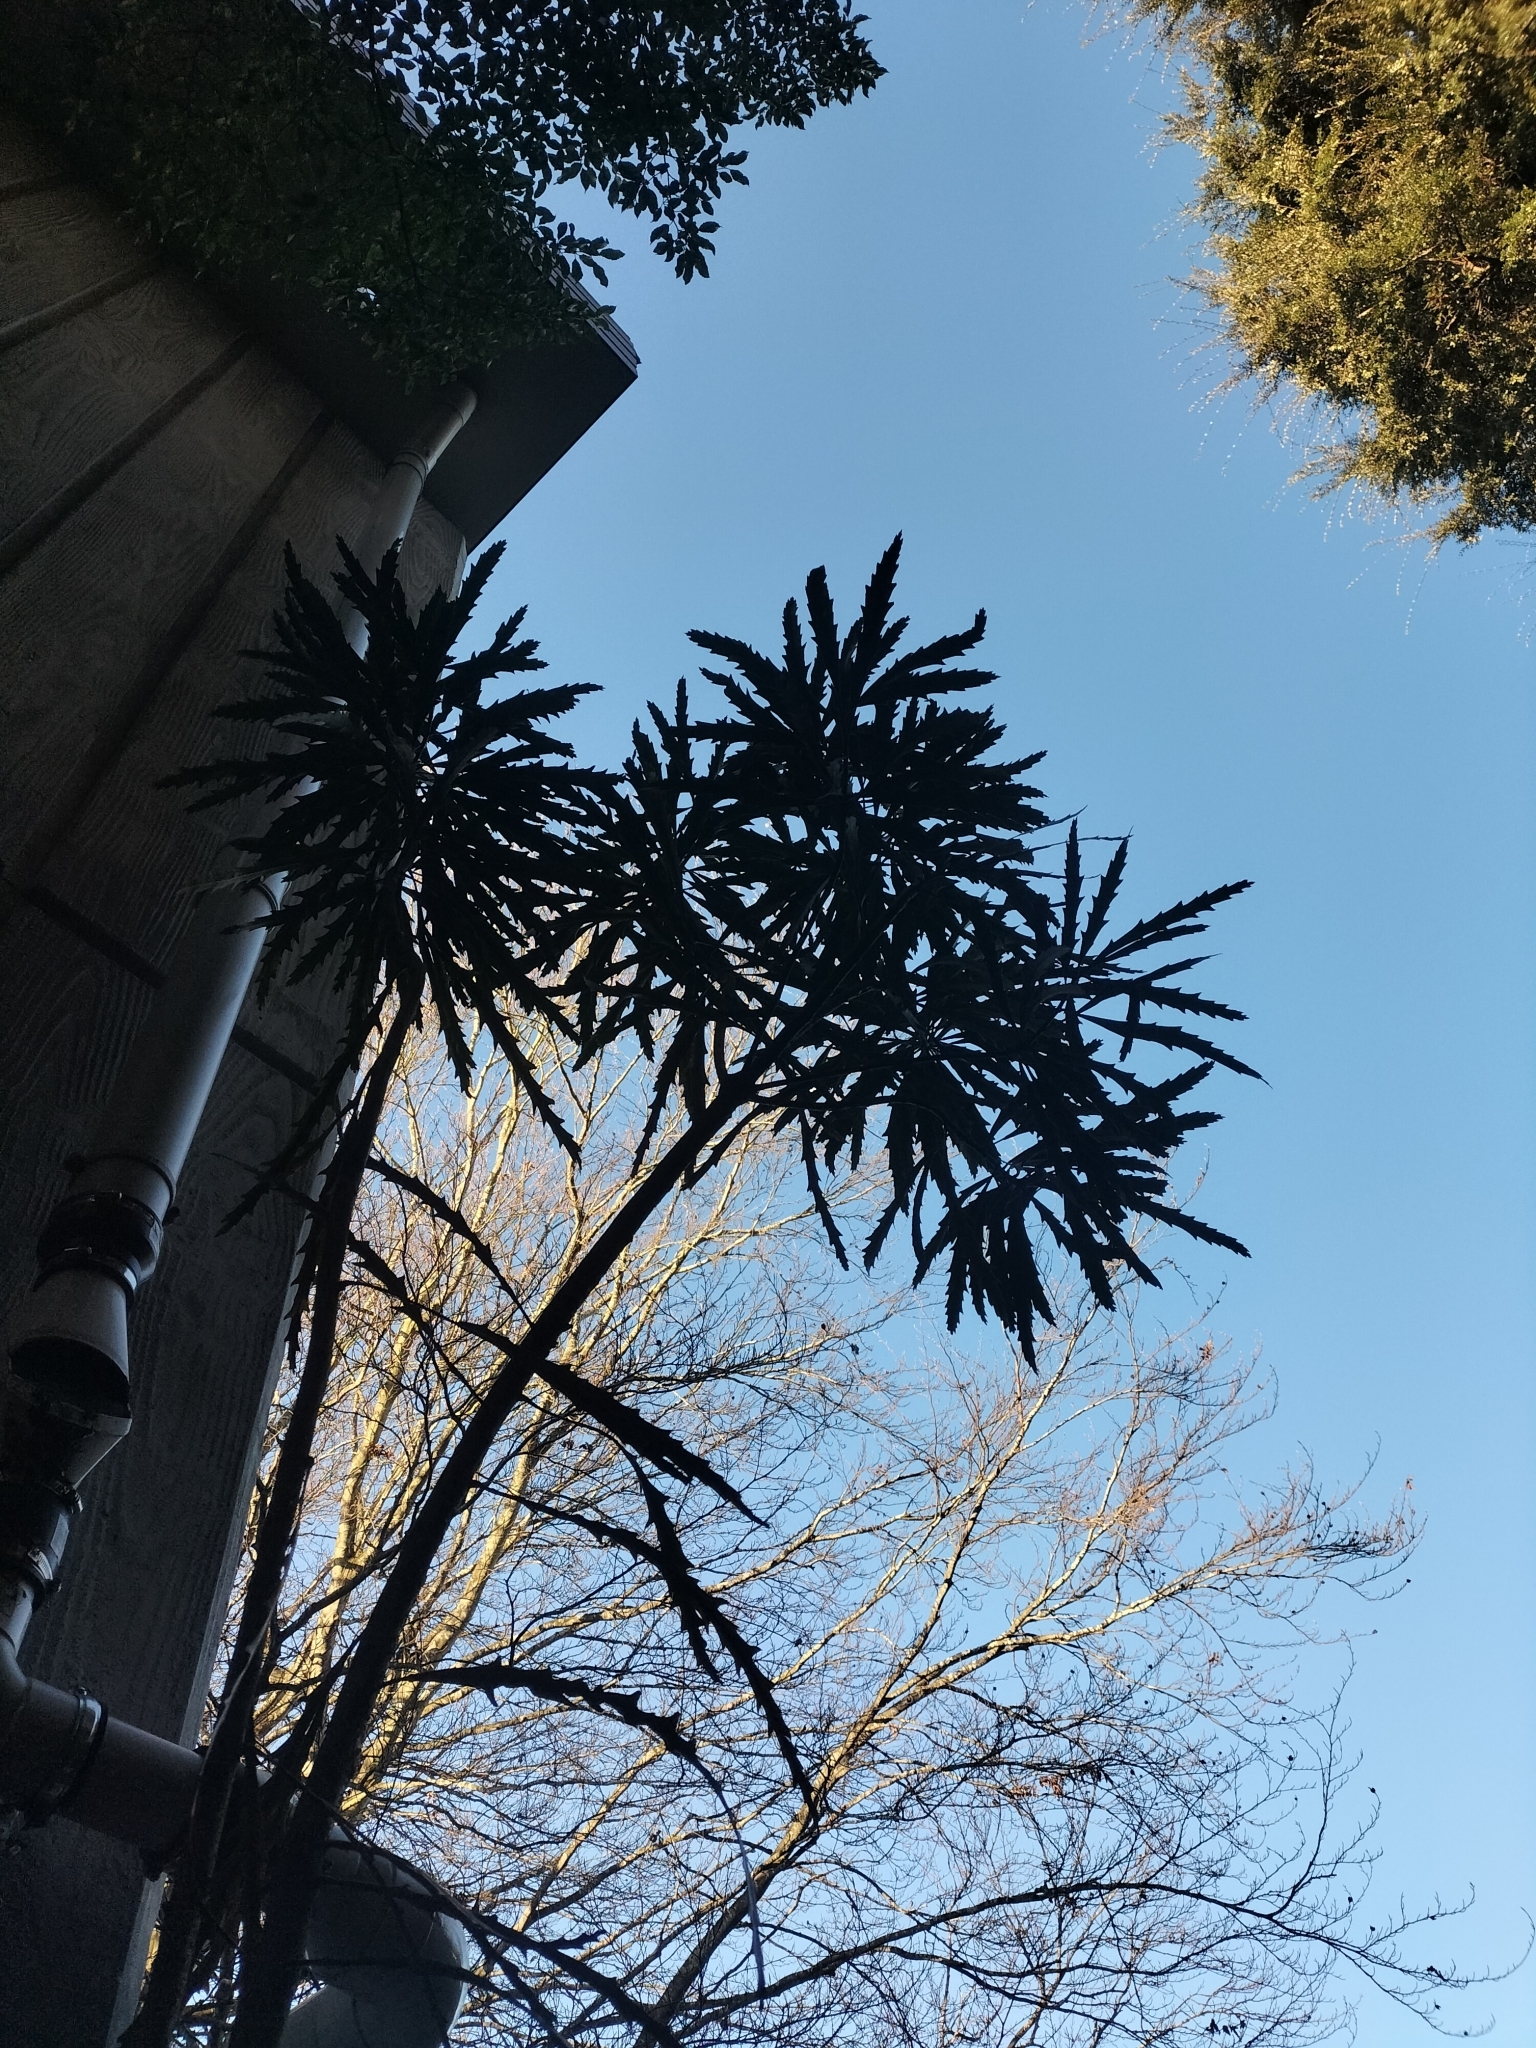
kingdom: Plantae
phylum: Tracheophyta
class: Magnoliopsida
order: Apiales
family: Araliaceae
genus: Pseudopanax
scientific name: Pseudopanax ferox
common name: Fierce lancewood
